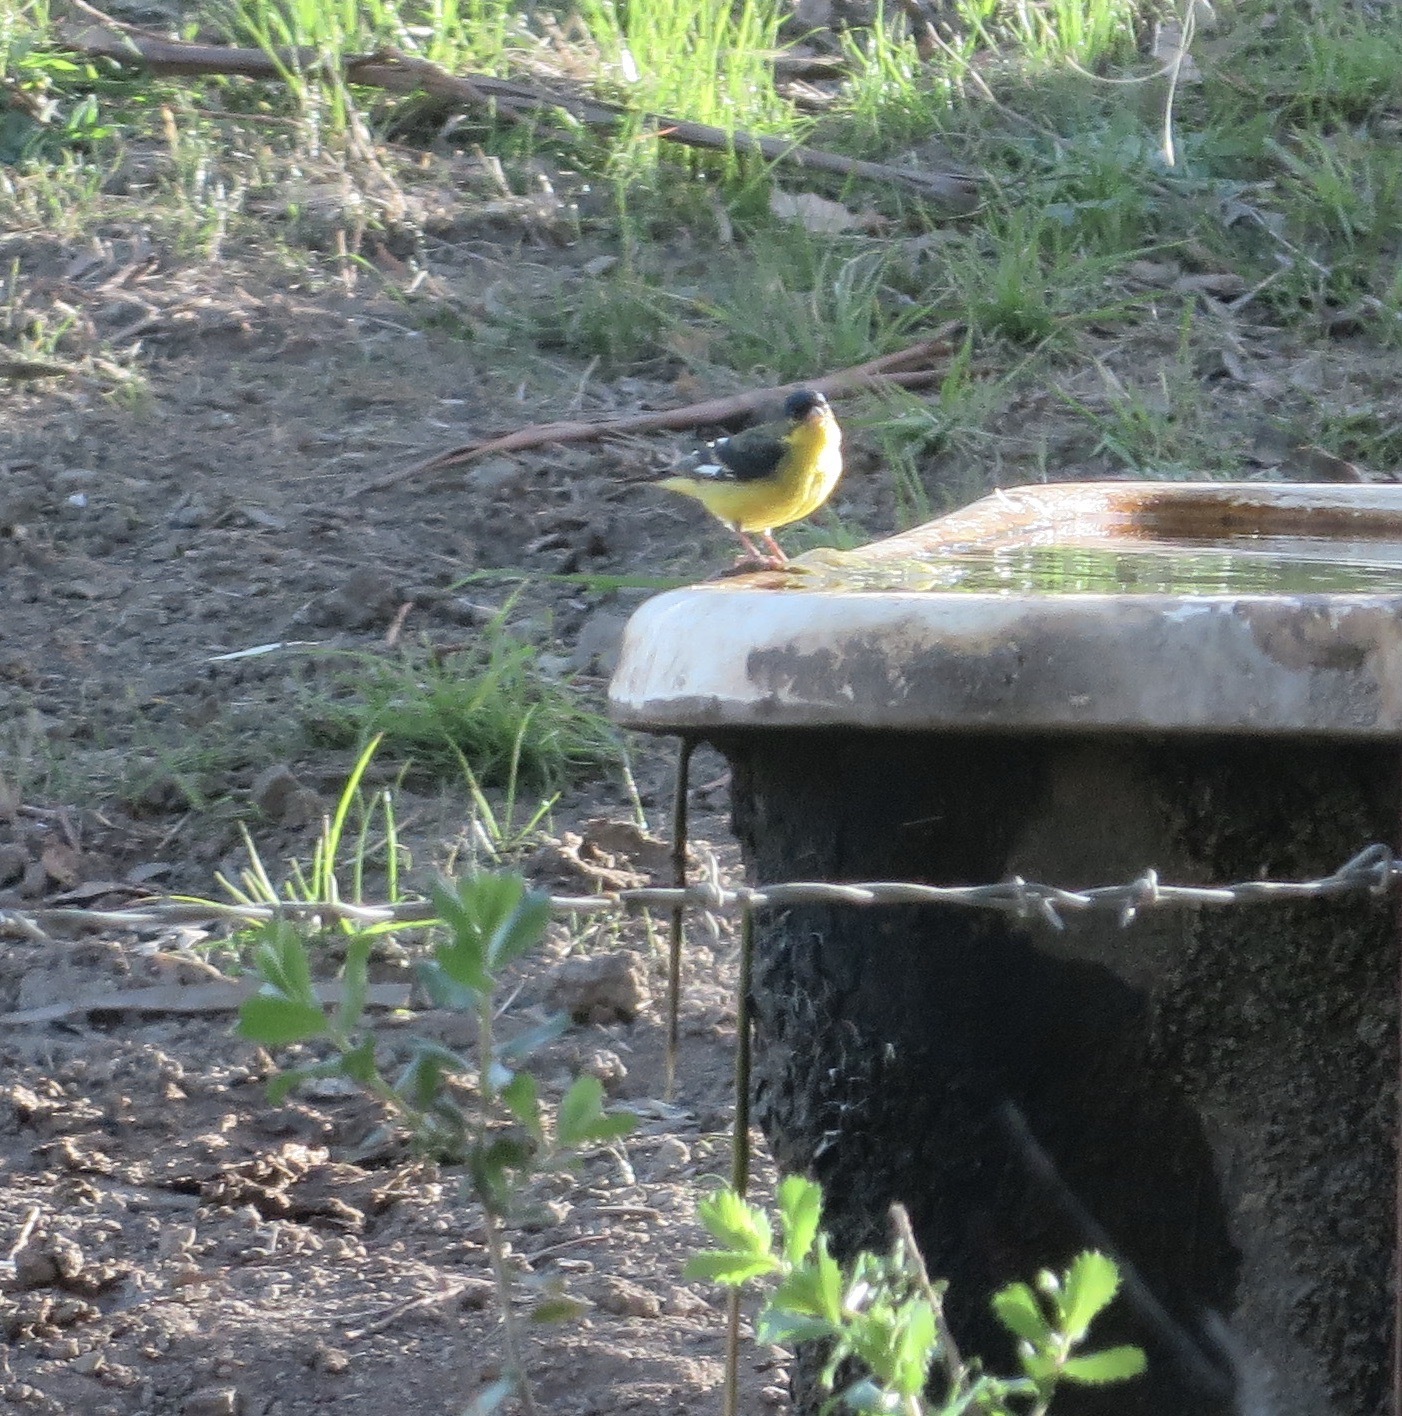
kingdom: Animalia
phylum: Chordata
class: Aves
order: Passeriformes
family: Fringillidae
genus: Spinus
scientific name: Spinus psaltria
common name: Lesser goldfinch
